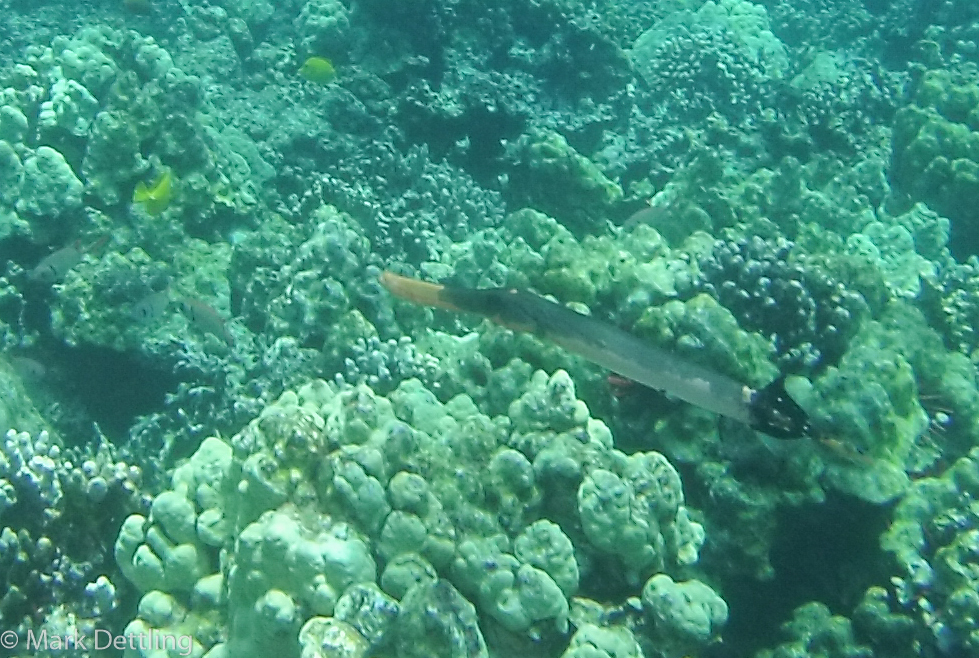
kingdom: Animalia
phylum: Chordata
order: Syngnathiformes
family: Aulostomidae
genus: Aulostomus
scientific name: Aulostomus chinensis
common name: Chinese trumpetfish
